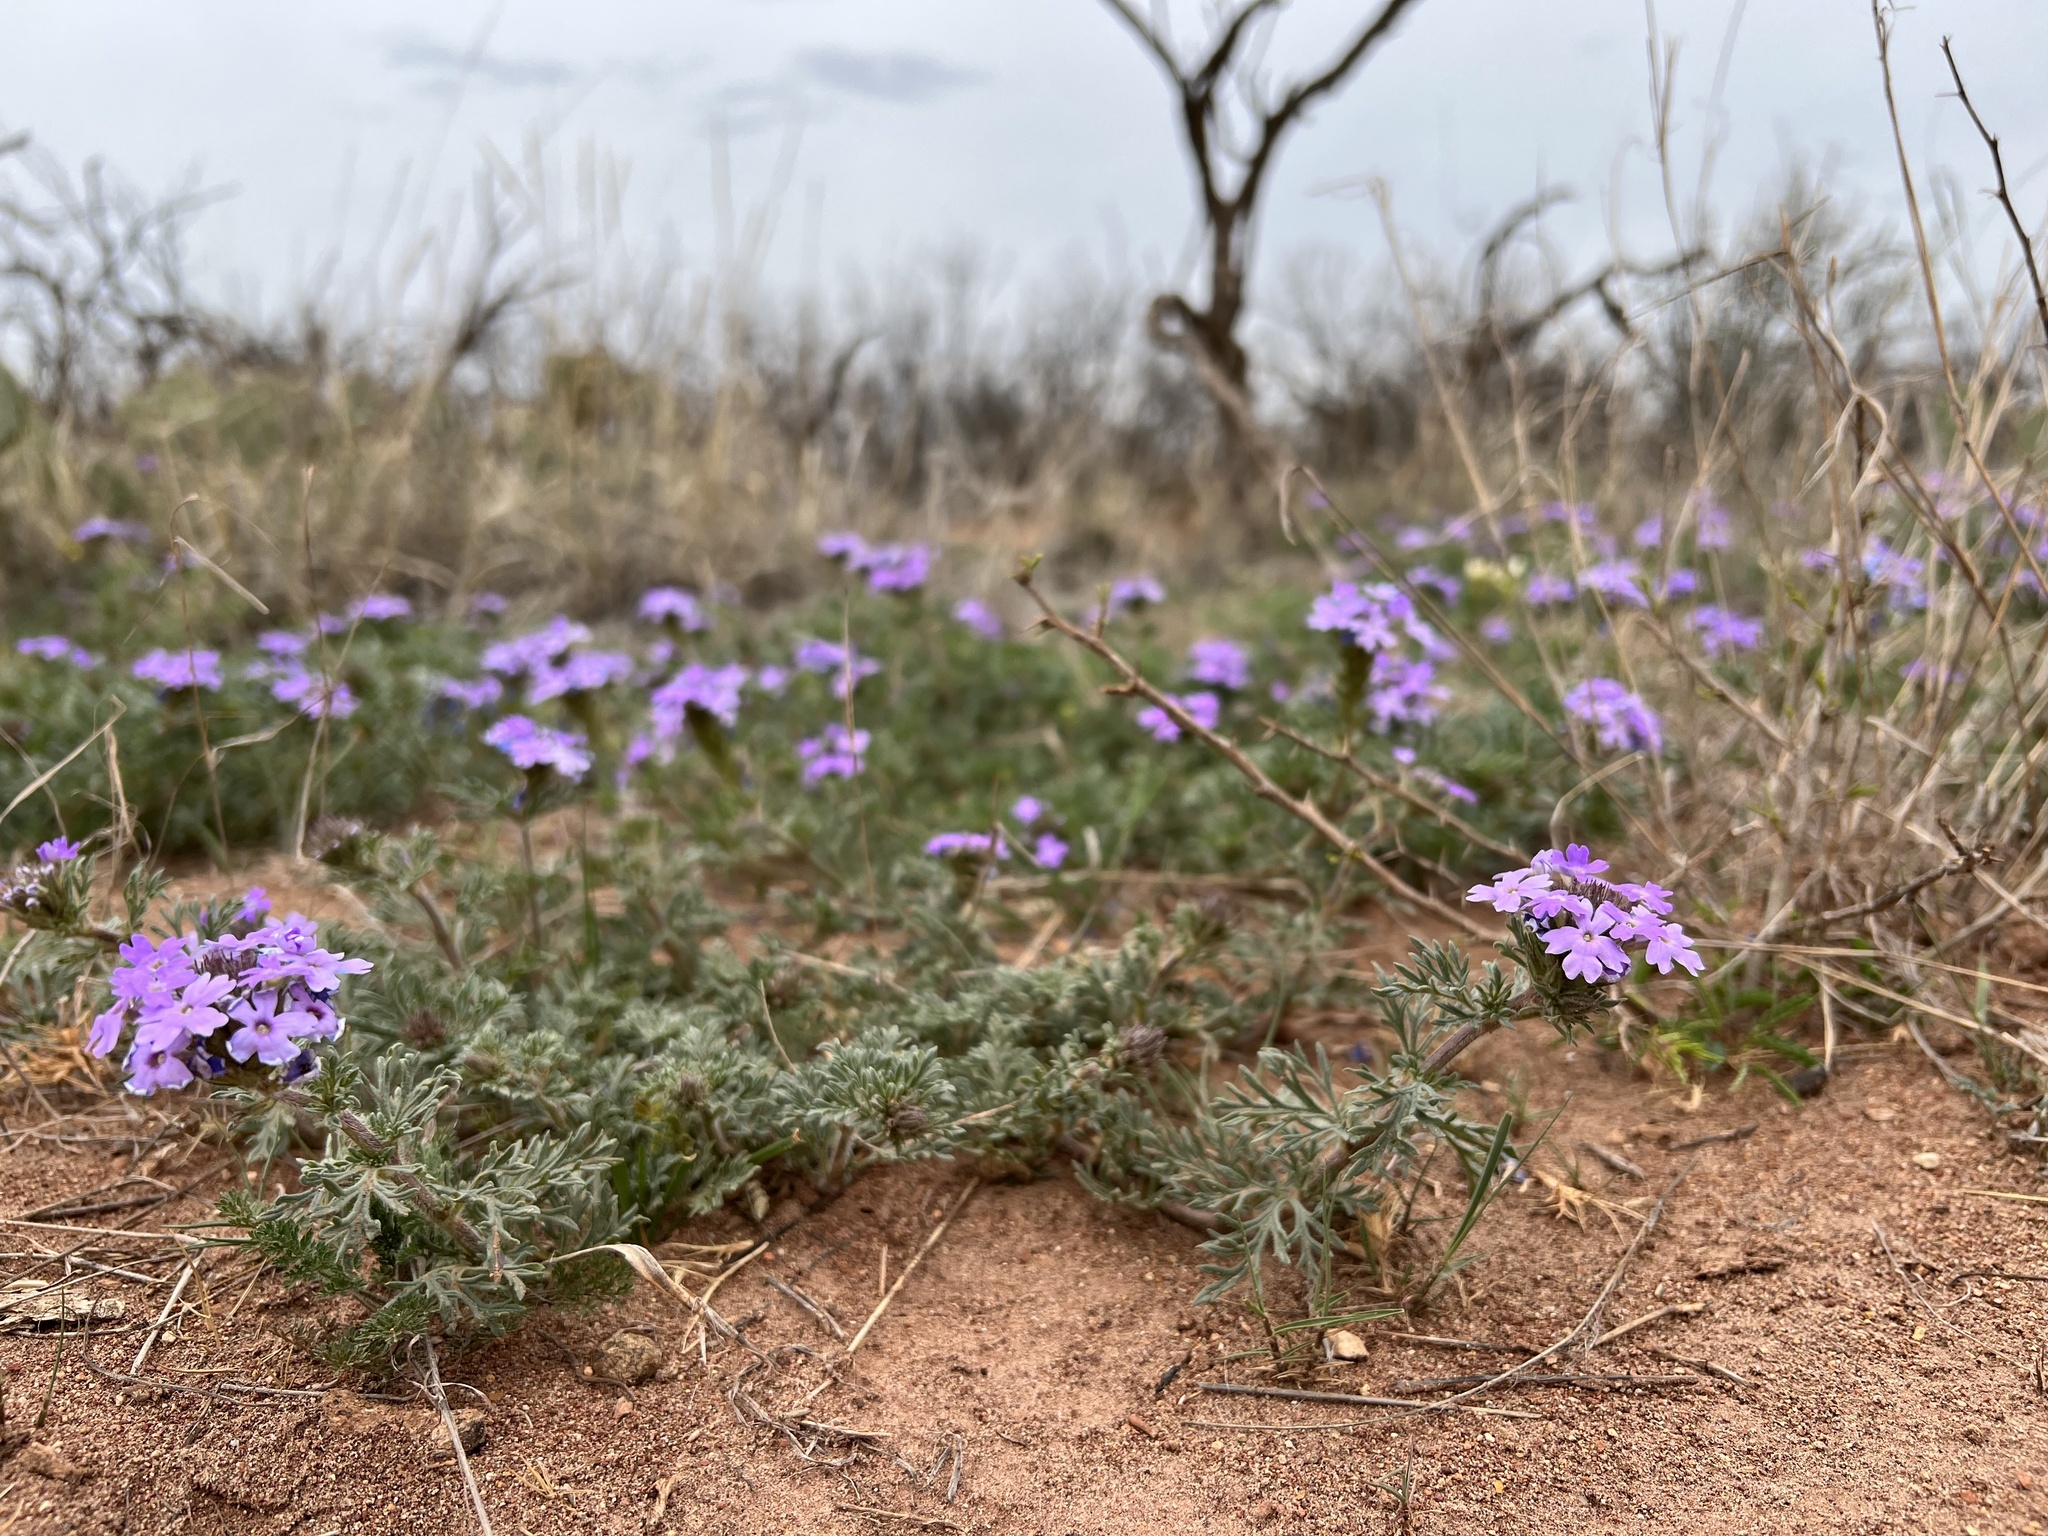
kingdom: Plantae
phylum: Tracheophyta
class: Magnoliopsida
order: Lamiales
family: Verbenaceae
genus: Verbena
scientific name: Verbena bipinnatifida
